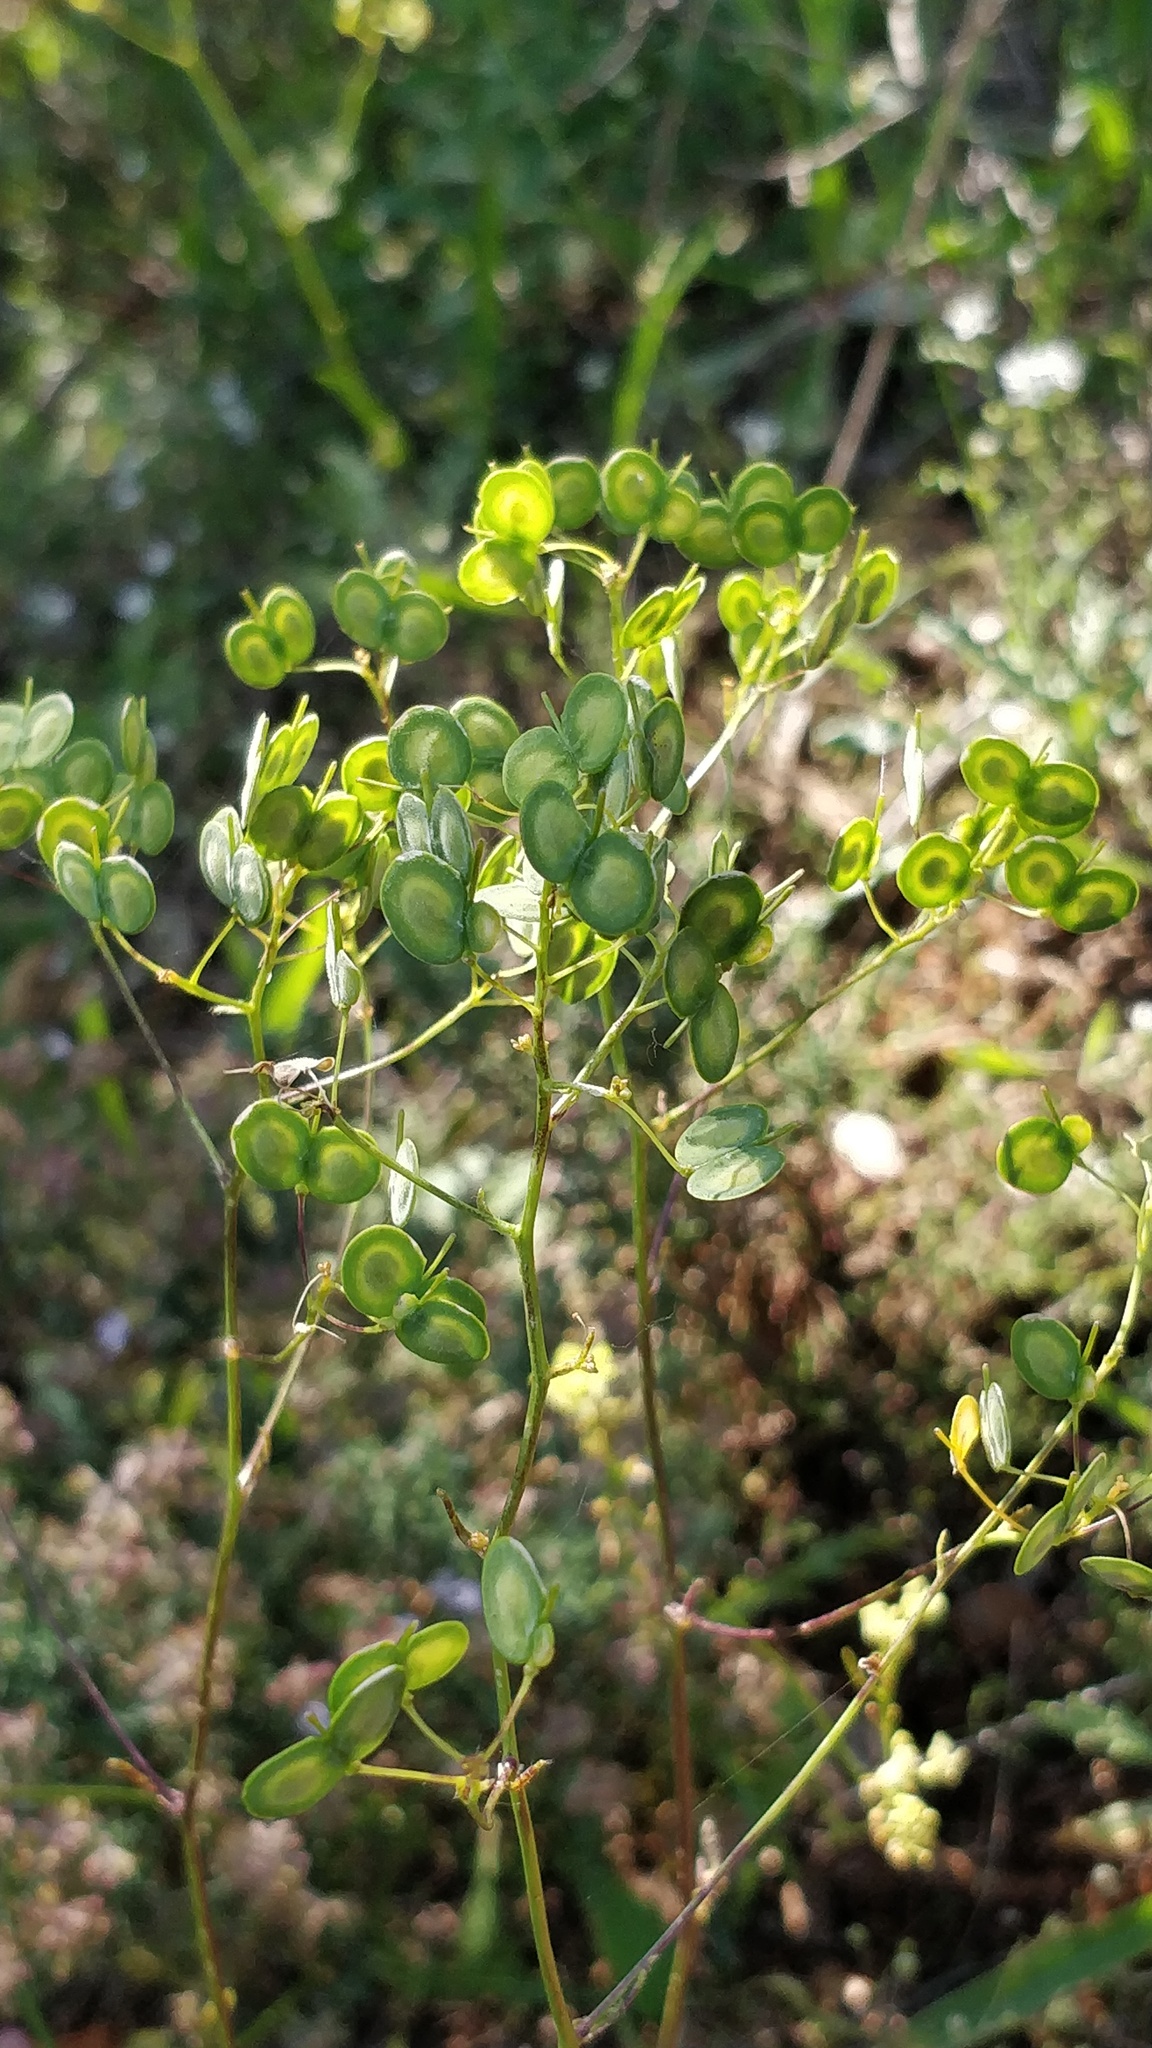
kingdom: Plantae
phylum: Tracheophyta
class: Magnoliopsida
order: Brassicales
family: Brassicaceae
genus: Biscutella
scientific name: Biscutella laevigata
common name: Buckler mustard
